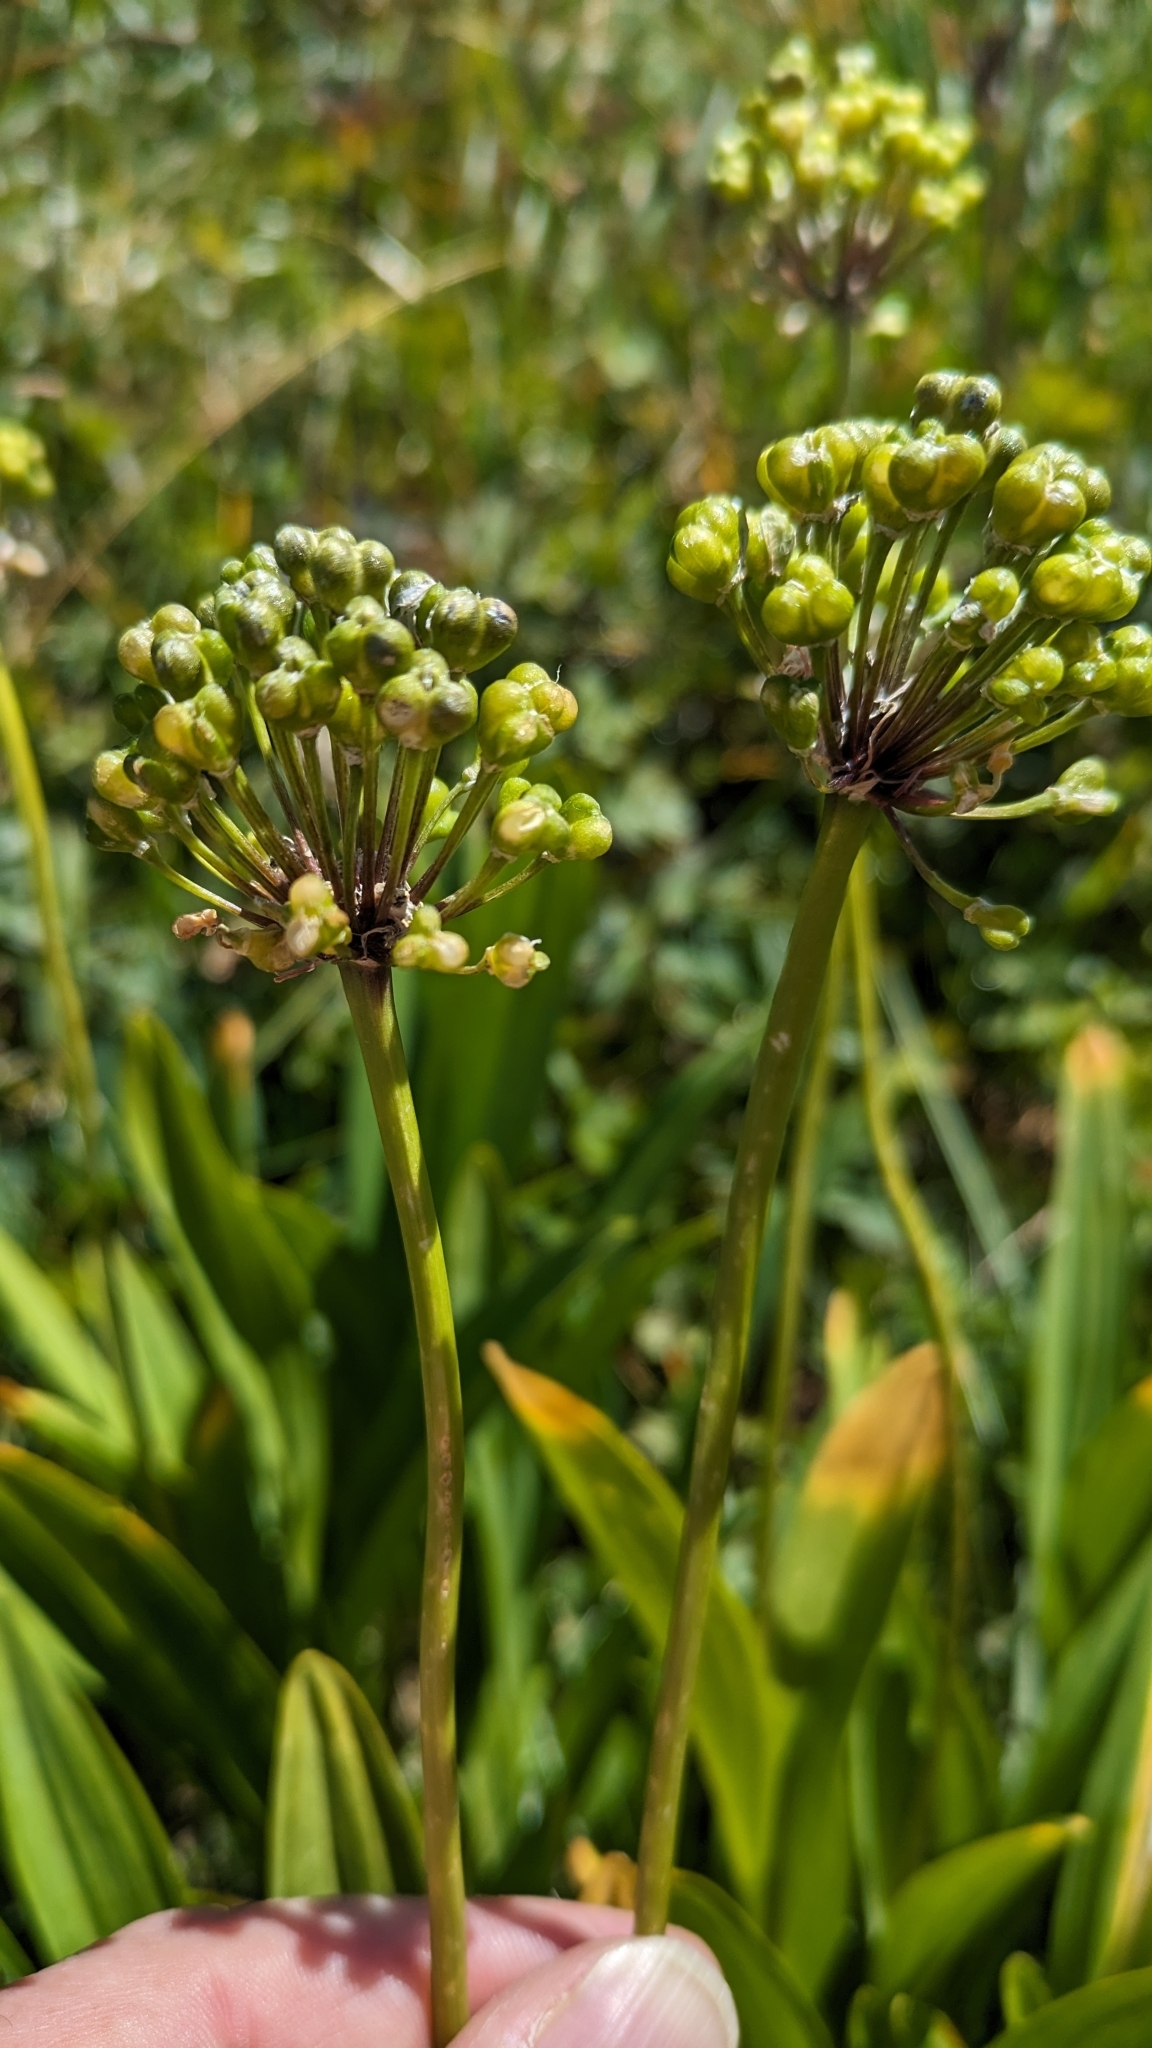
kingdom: Plantae
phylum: Tracheophyta
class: Liliopsida
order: Asparagales
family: Amaryllidaceae
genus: Allium
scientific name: Allium victorialis
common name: Alpine leek
